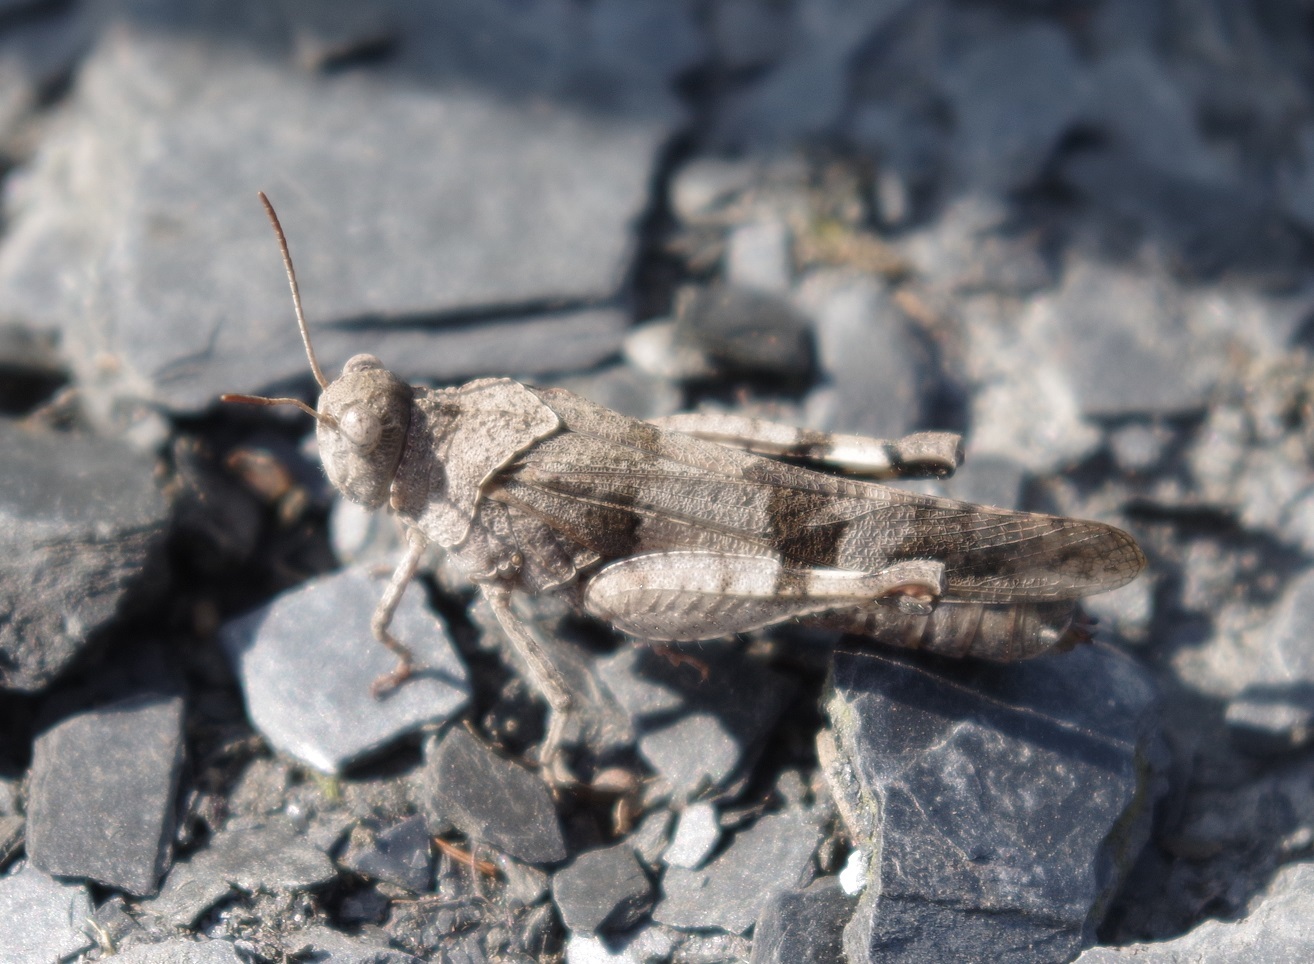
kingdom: Animalia
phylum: Arthropoda
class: Insecta
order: Orthoptera
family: Acrididae
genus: Oedipoda
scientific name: Oedipoda caerulescens
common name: Blue-winged grasshopper
